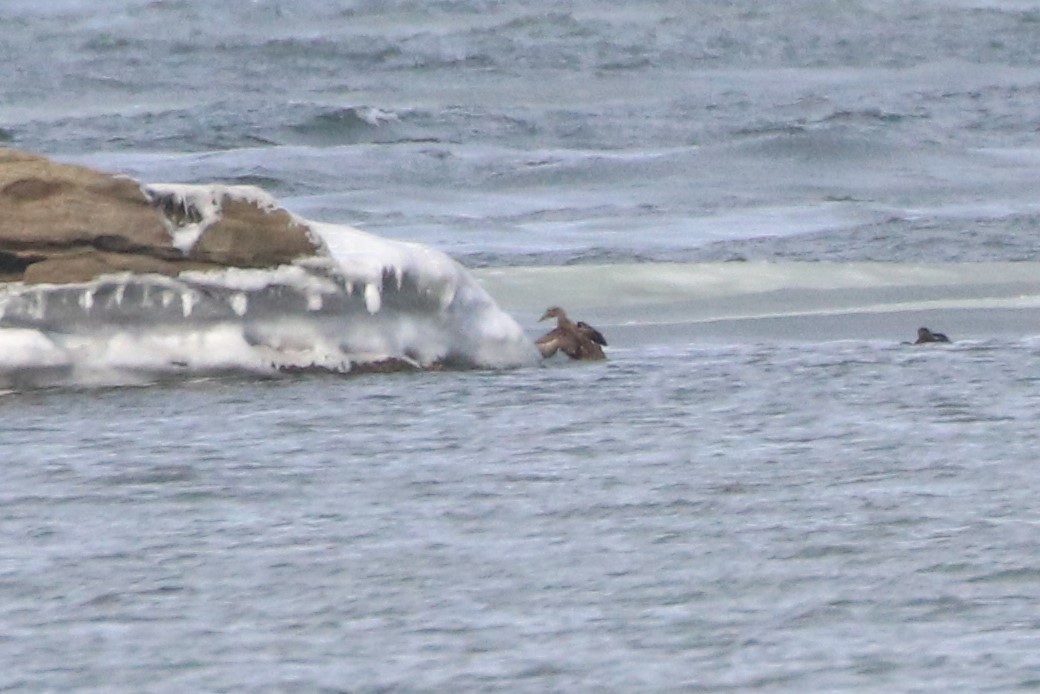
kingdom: Animalia
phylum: Chordata
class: Aves
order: Anseriformes
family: Anatidae
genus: Somateria
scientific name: Somateria mollissima
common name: Common eider
